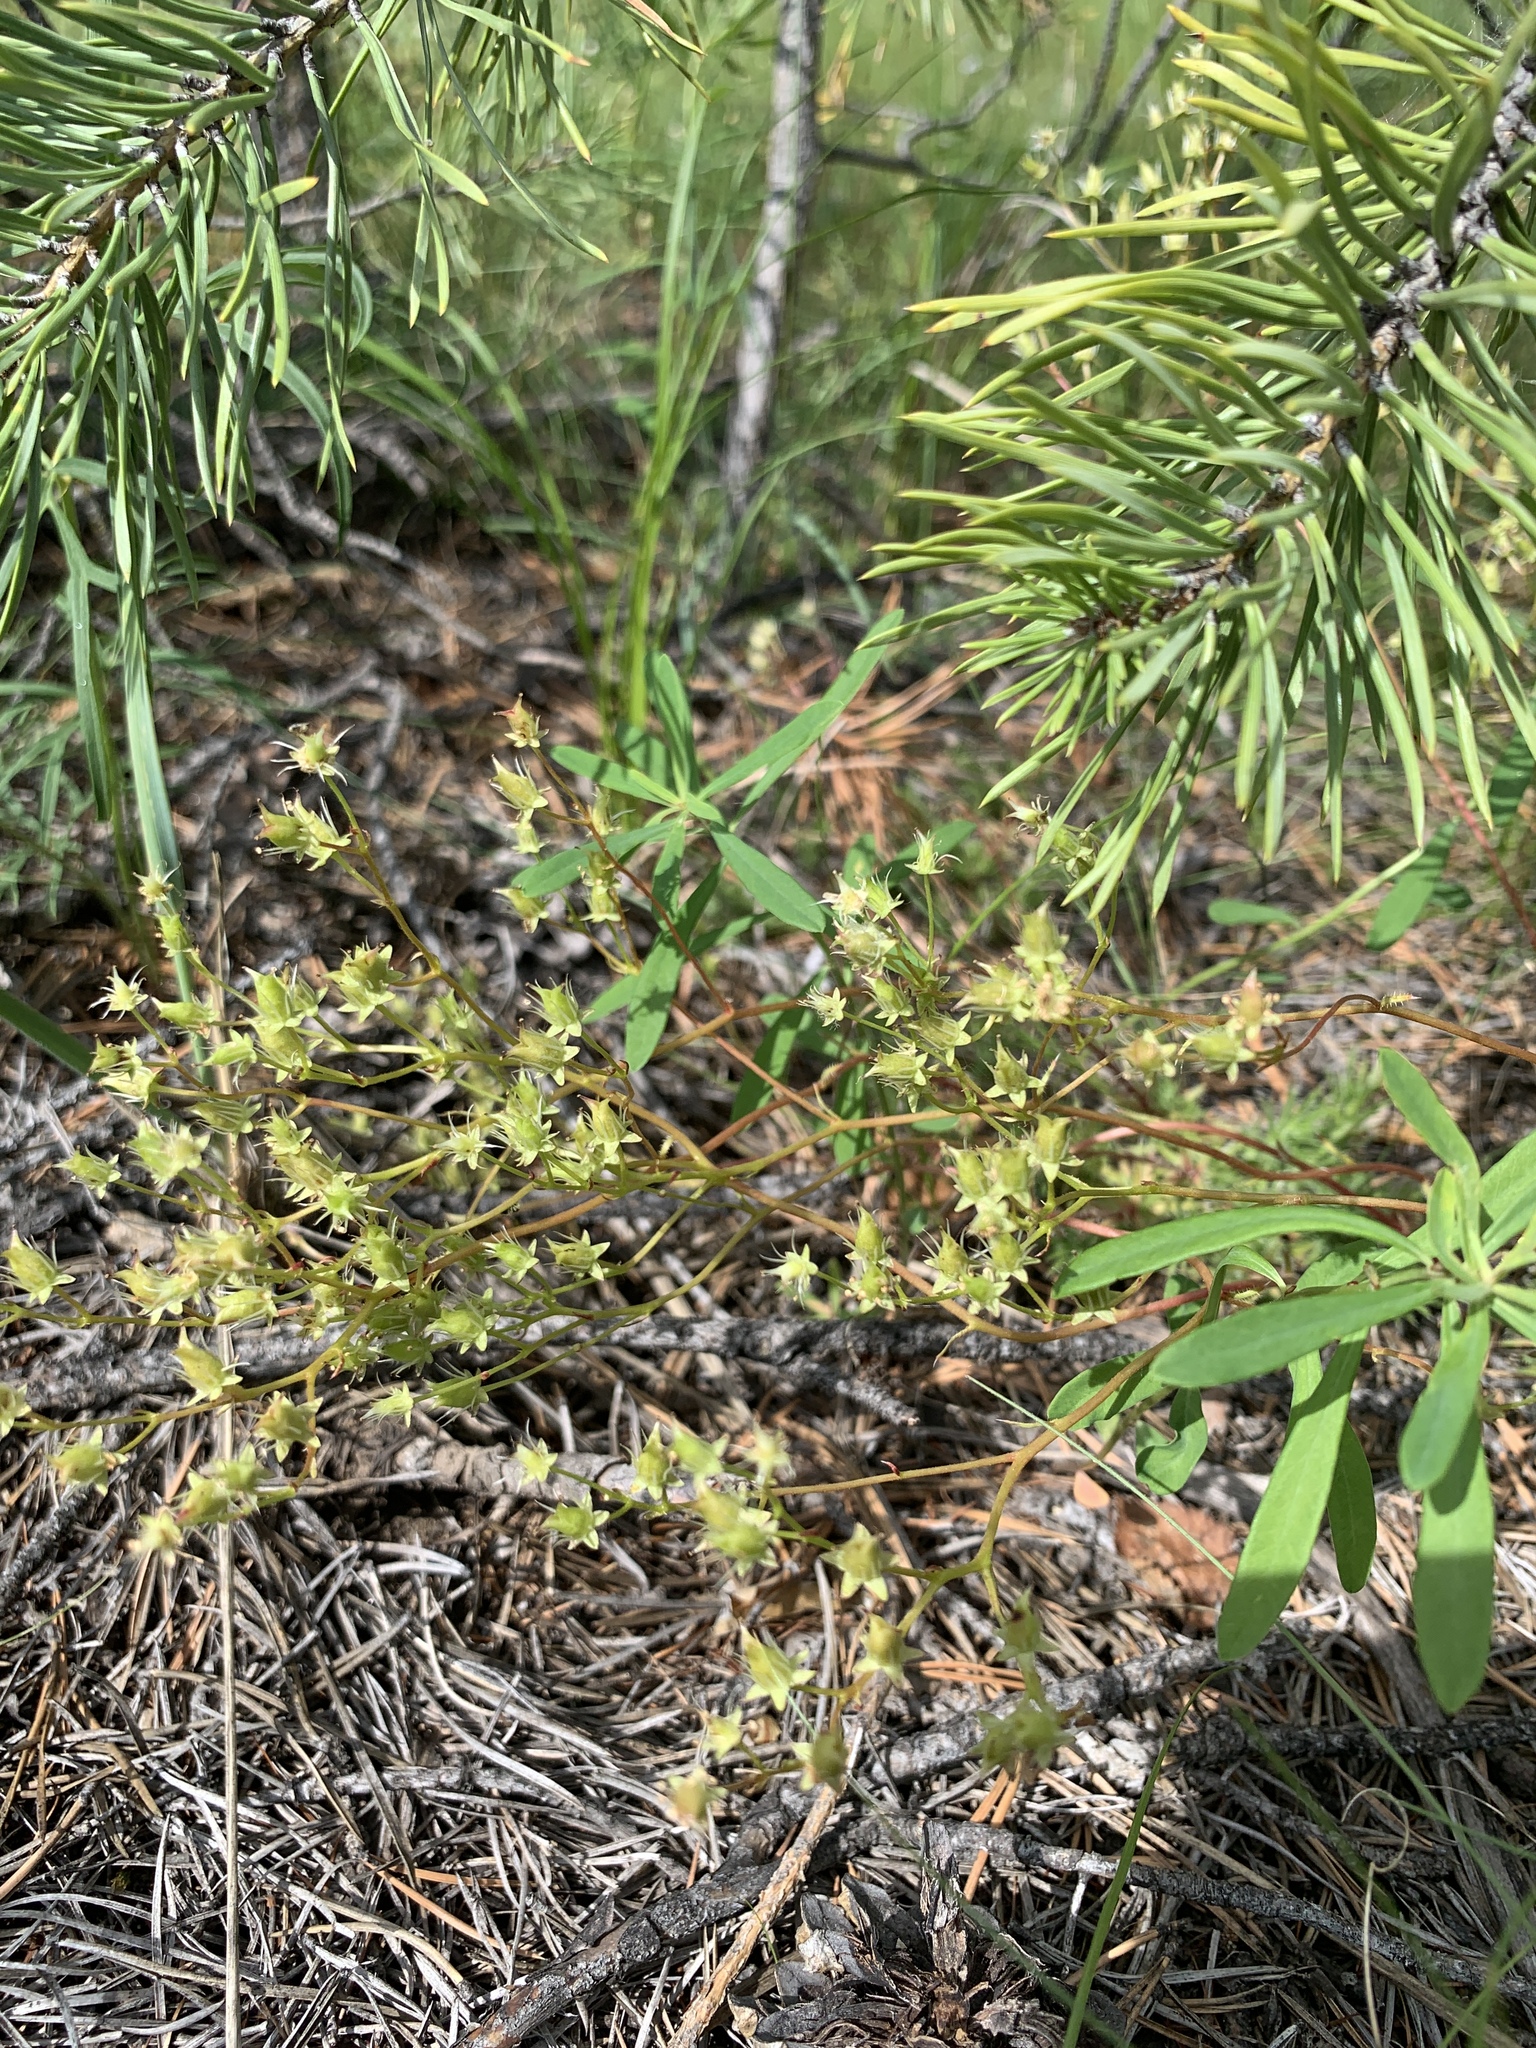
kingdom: Plantae
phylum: Tracheophyta
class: Magnoliopsida
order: Saxifragales
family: Saxifragaceae
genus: Saxifraga
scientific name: Saxifraga
